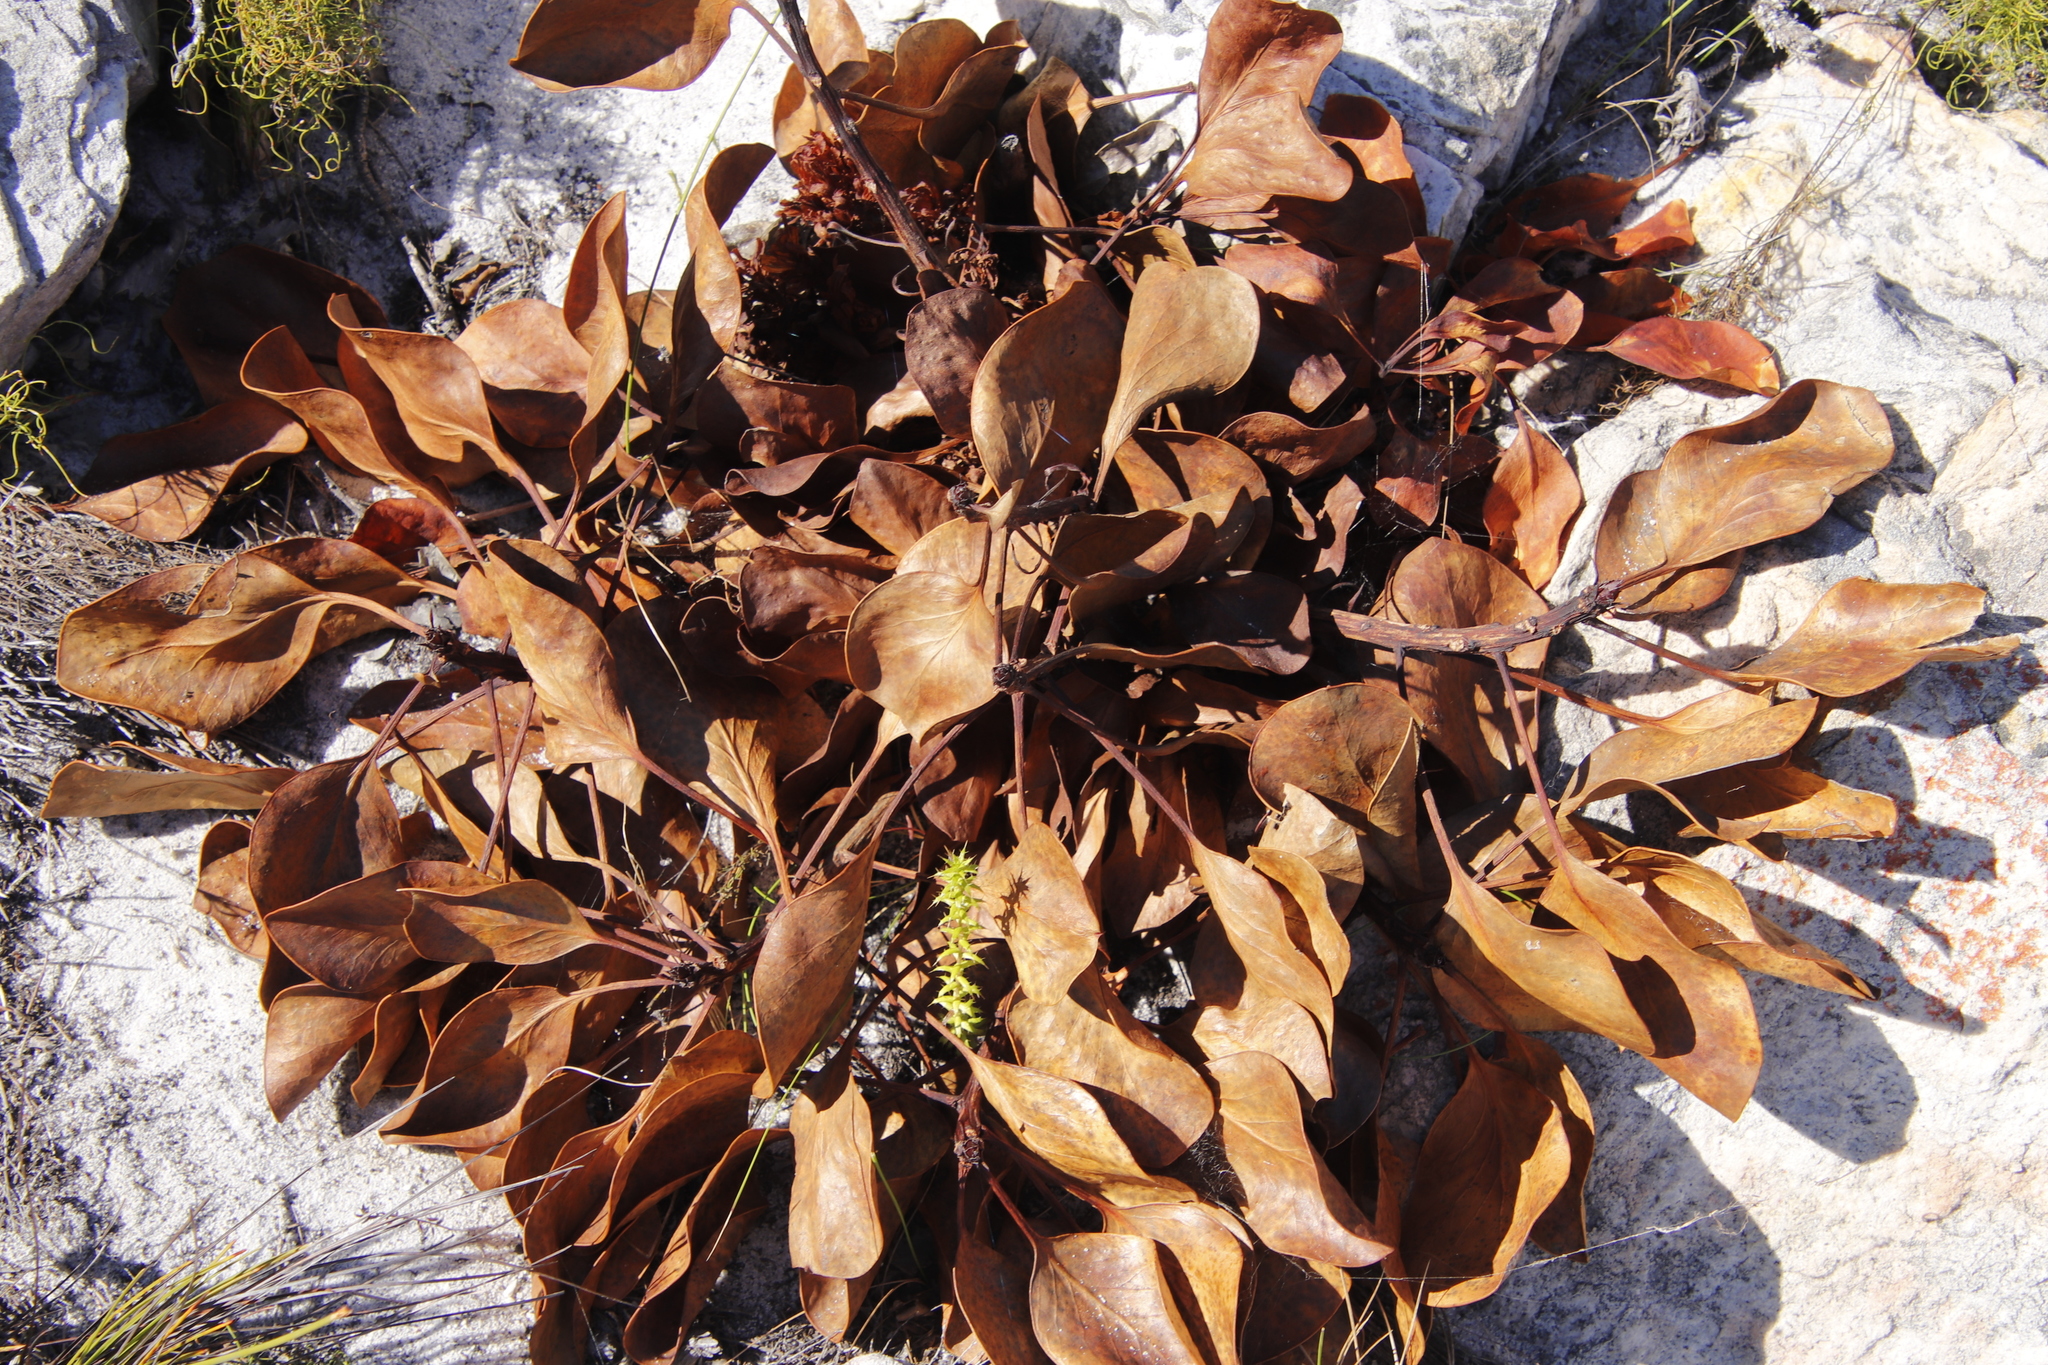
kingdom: Plantae
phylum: Tracheophyta
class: Magnoliopsida
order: Proteales
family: Proteaceae
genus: Protea
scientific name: Protea cynaroides
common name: King protea
